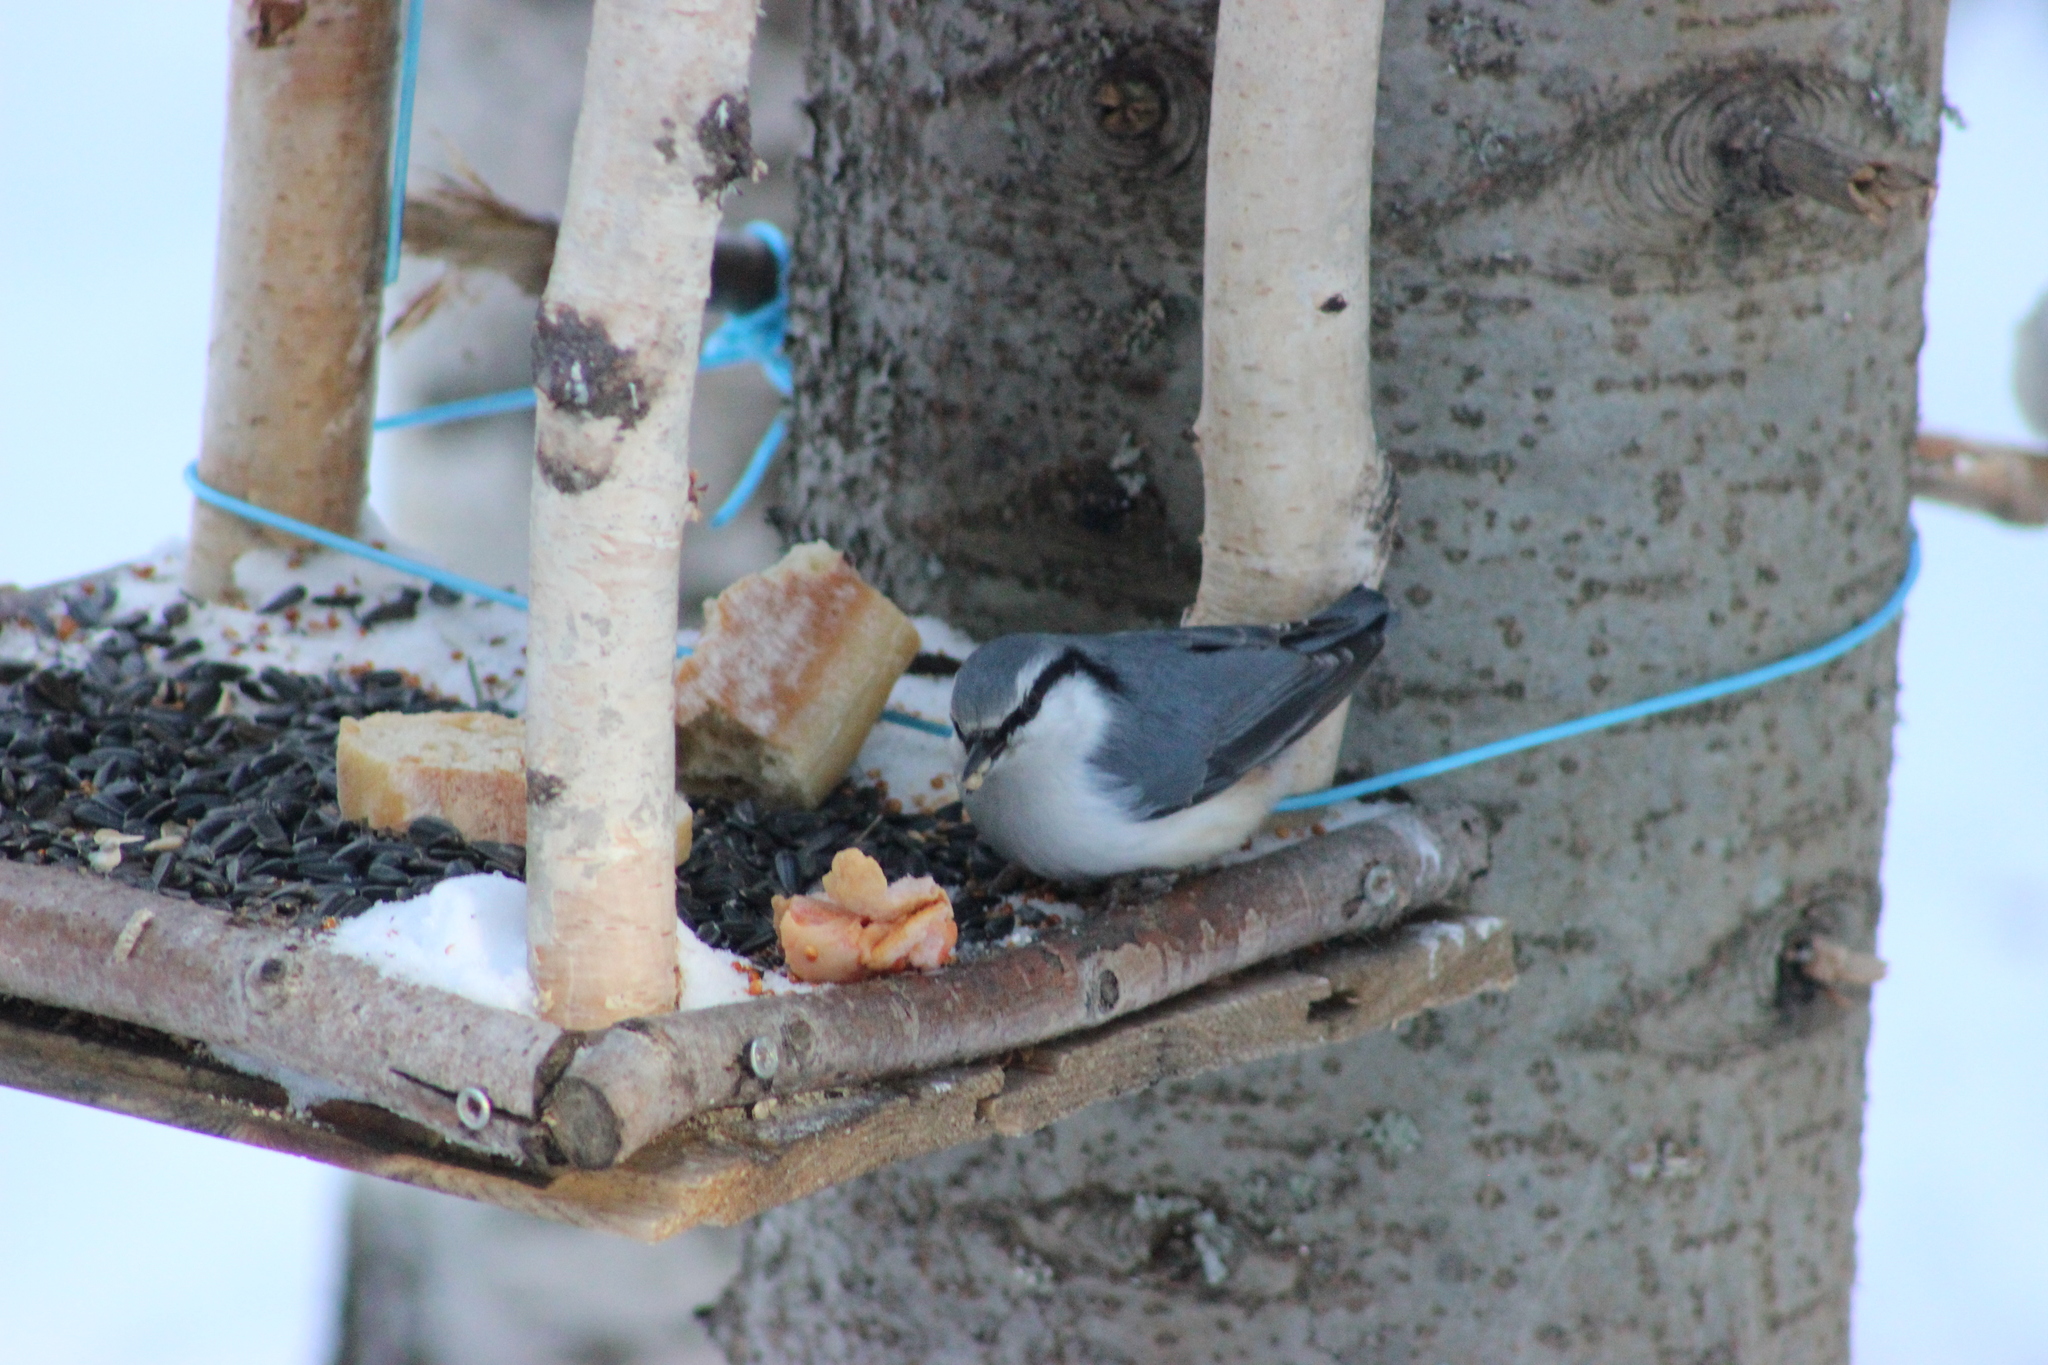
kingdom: Animalia
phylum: Chordata
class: Aves
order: Passeriformes
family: Sittidae
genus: Sitta
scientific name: Sitta europaea
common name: Eurasian nuthatch
